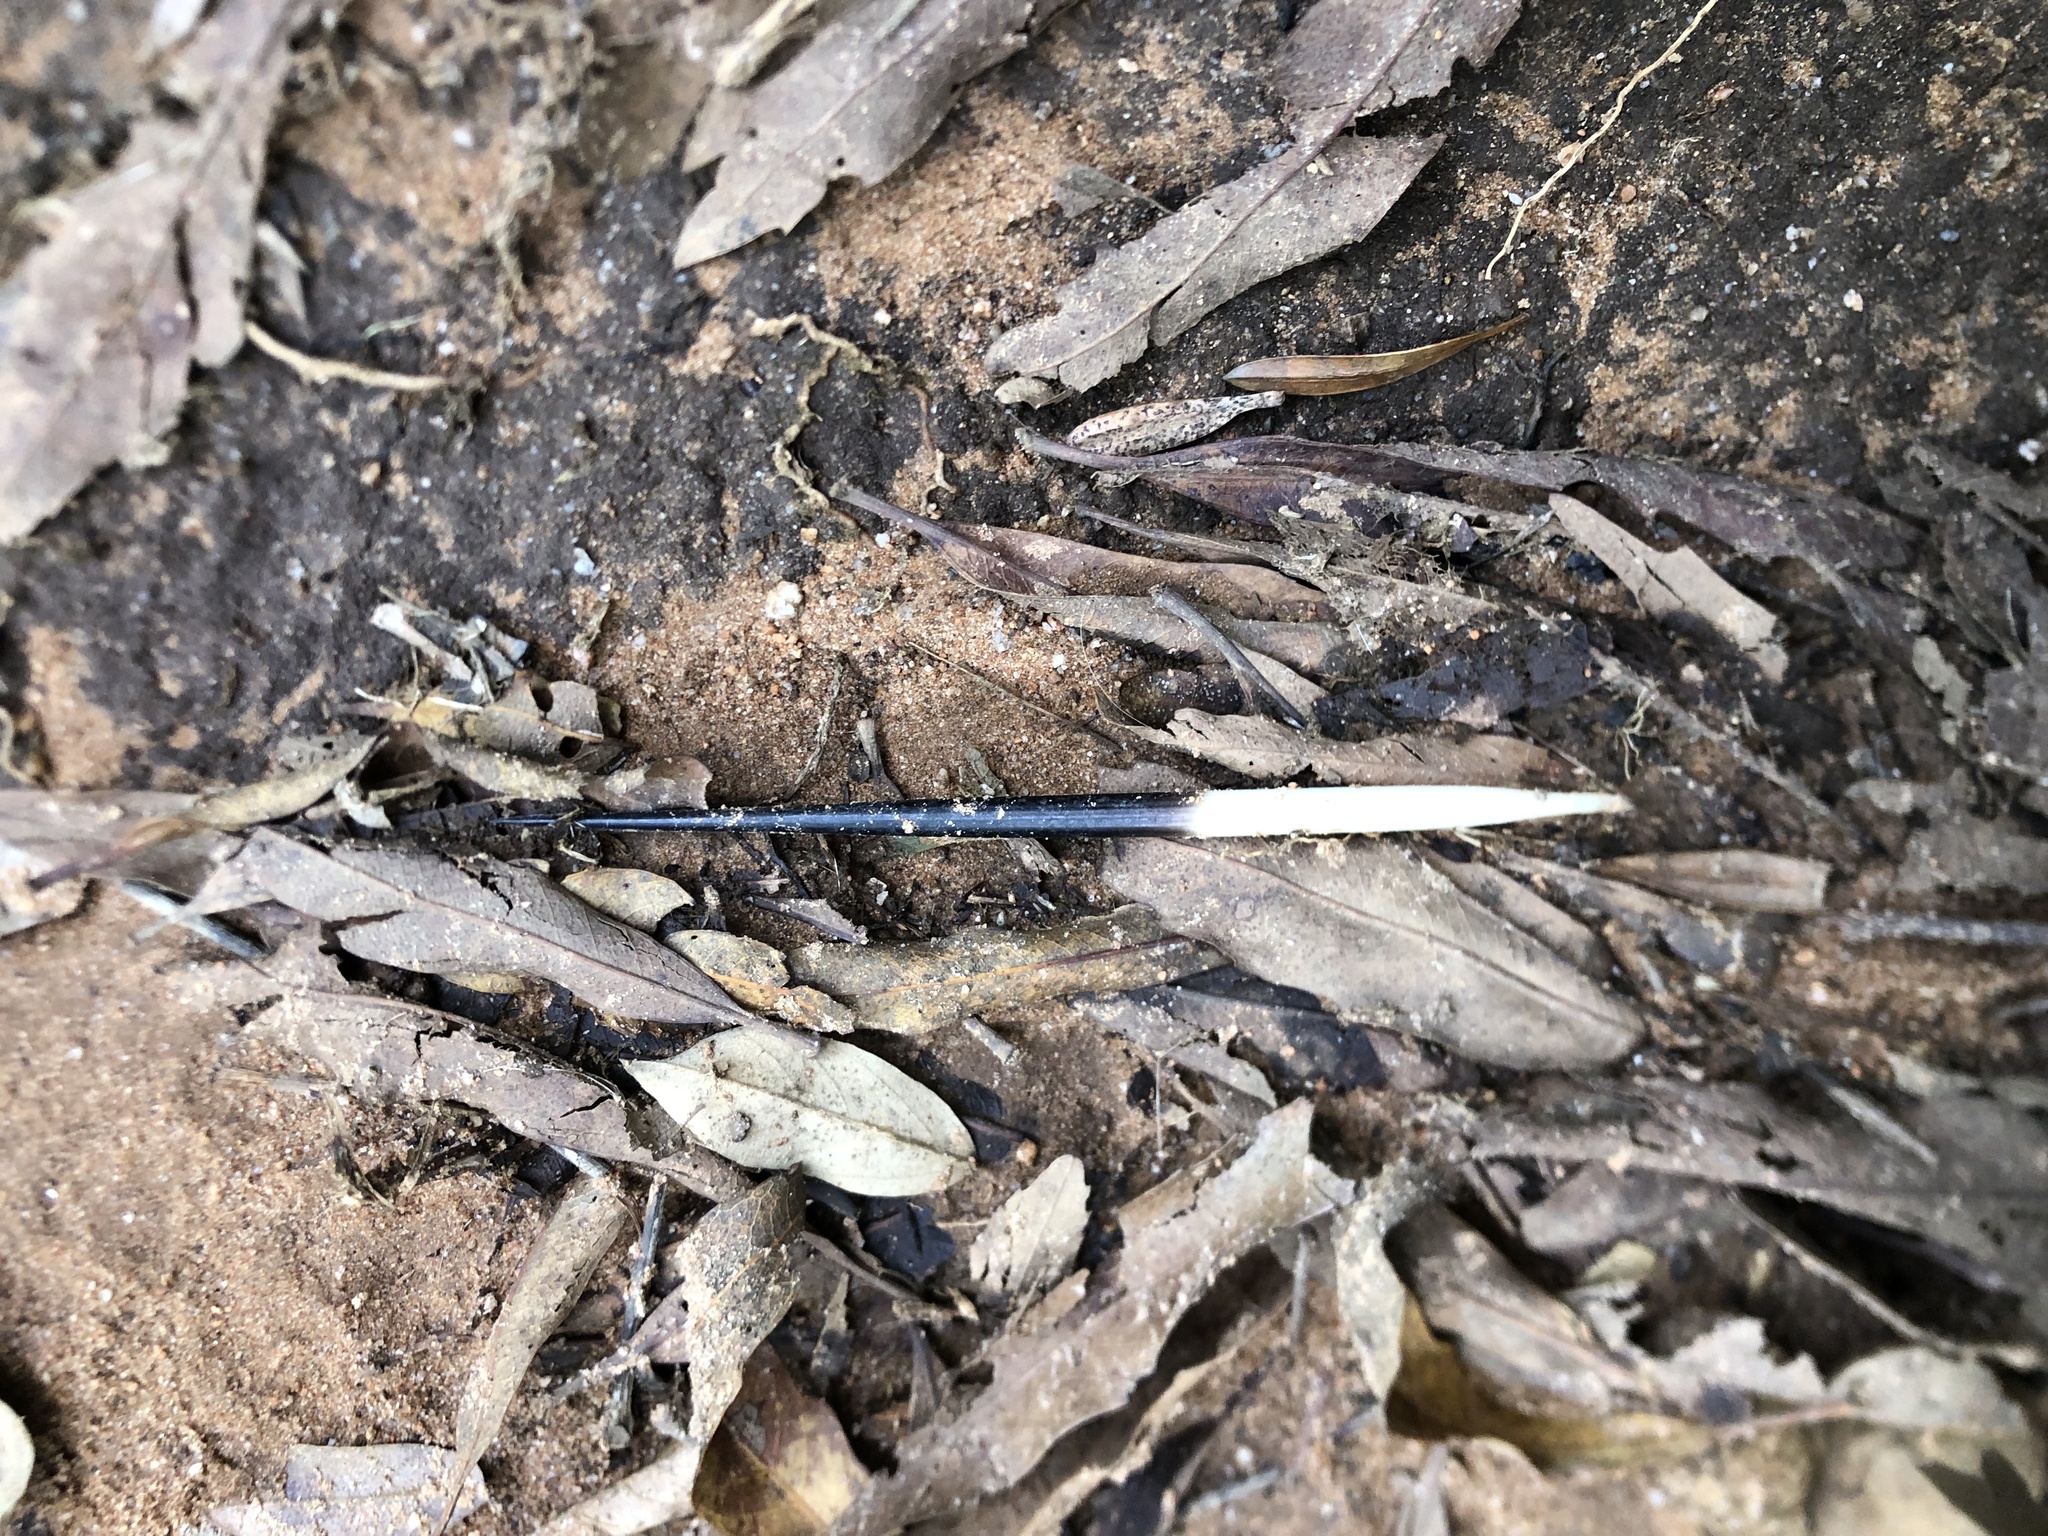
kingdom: Animalia
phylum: Chordata
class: Mammalia
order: Rodentia
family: Hystricidae
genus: Hystrix
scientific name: Hystrix africaeaustralis
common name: Cape porcupine
